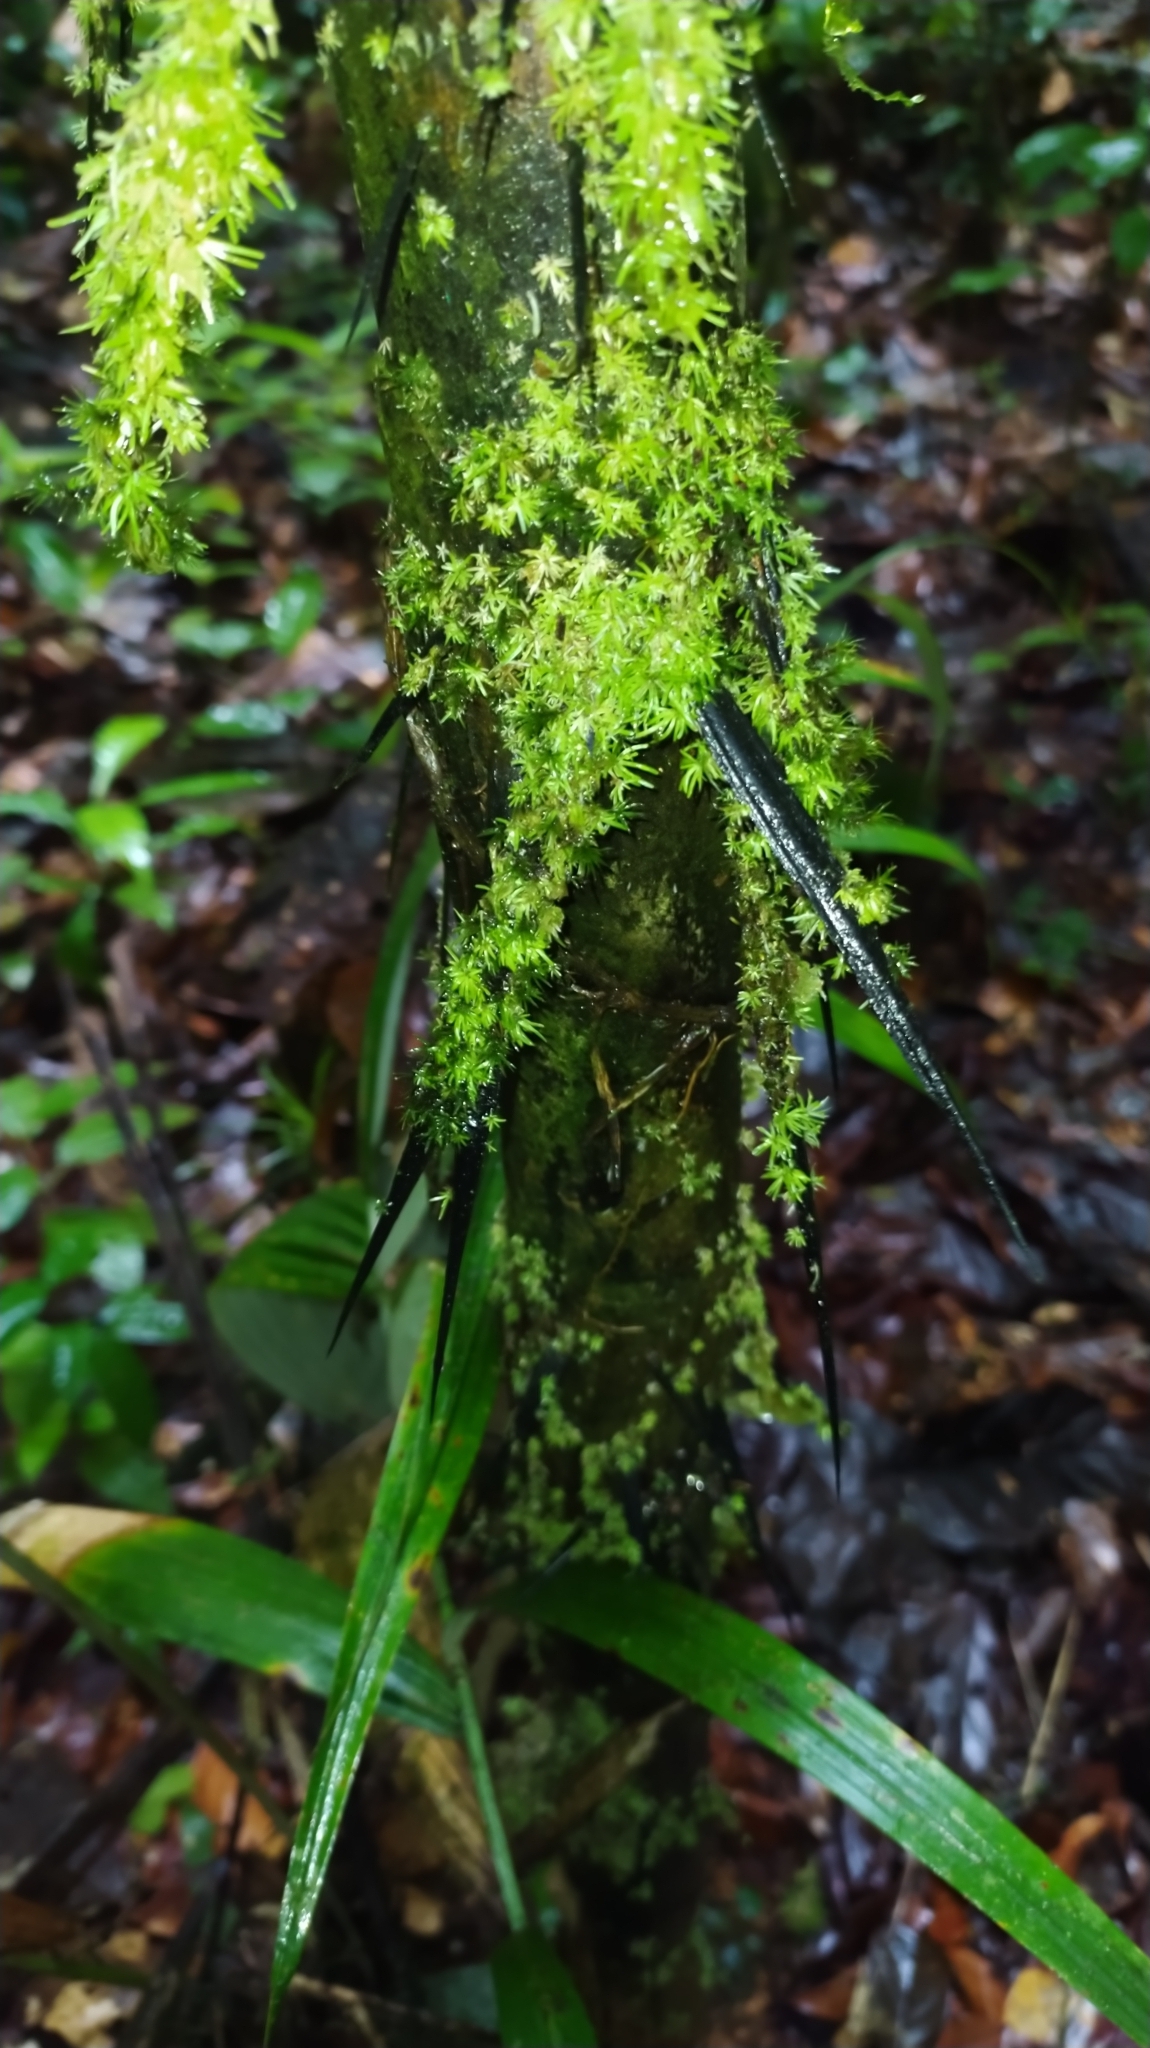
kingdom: Plantae
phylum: Tracheophyta
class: Liliopsida
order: Arecales
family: Arecaceae
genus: Astrocaryum
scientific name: Astrocaryum aculeatum
